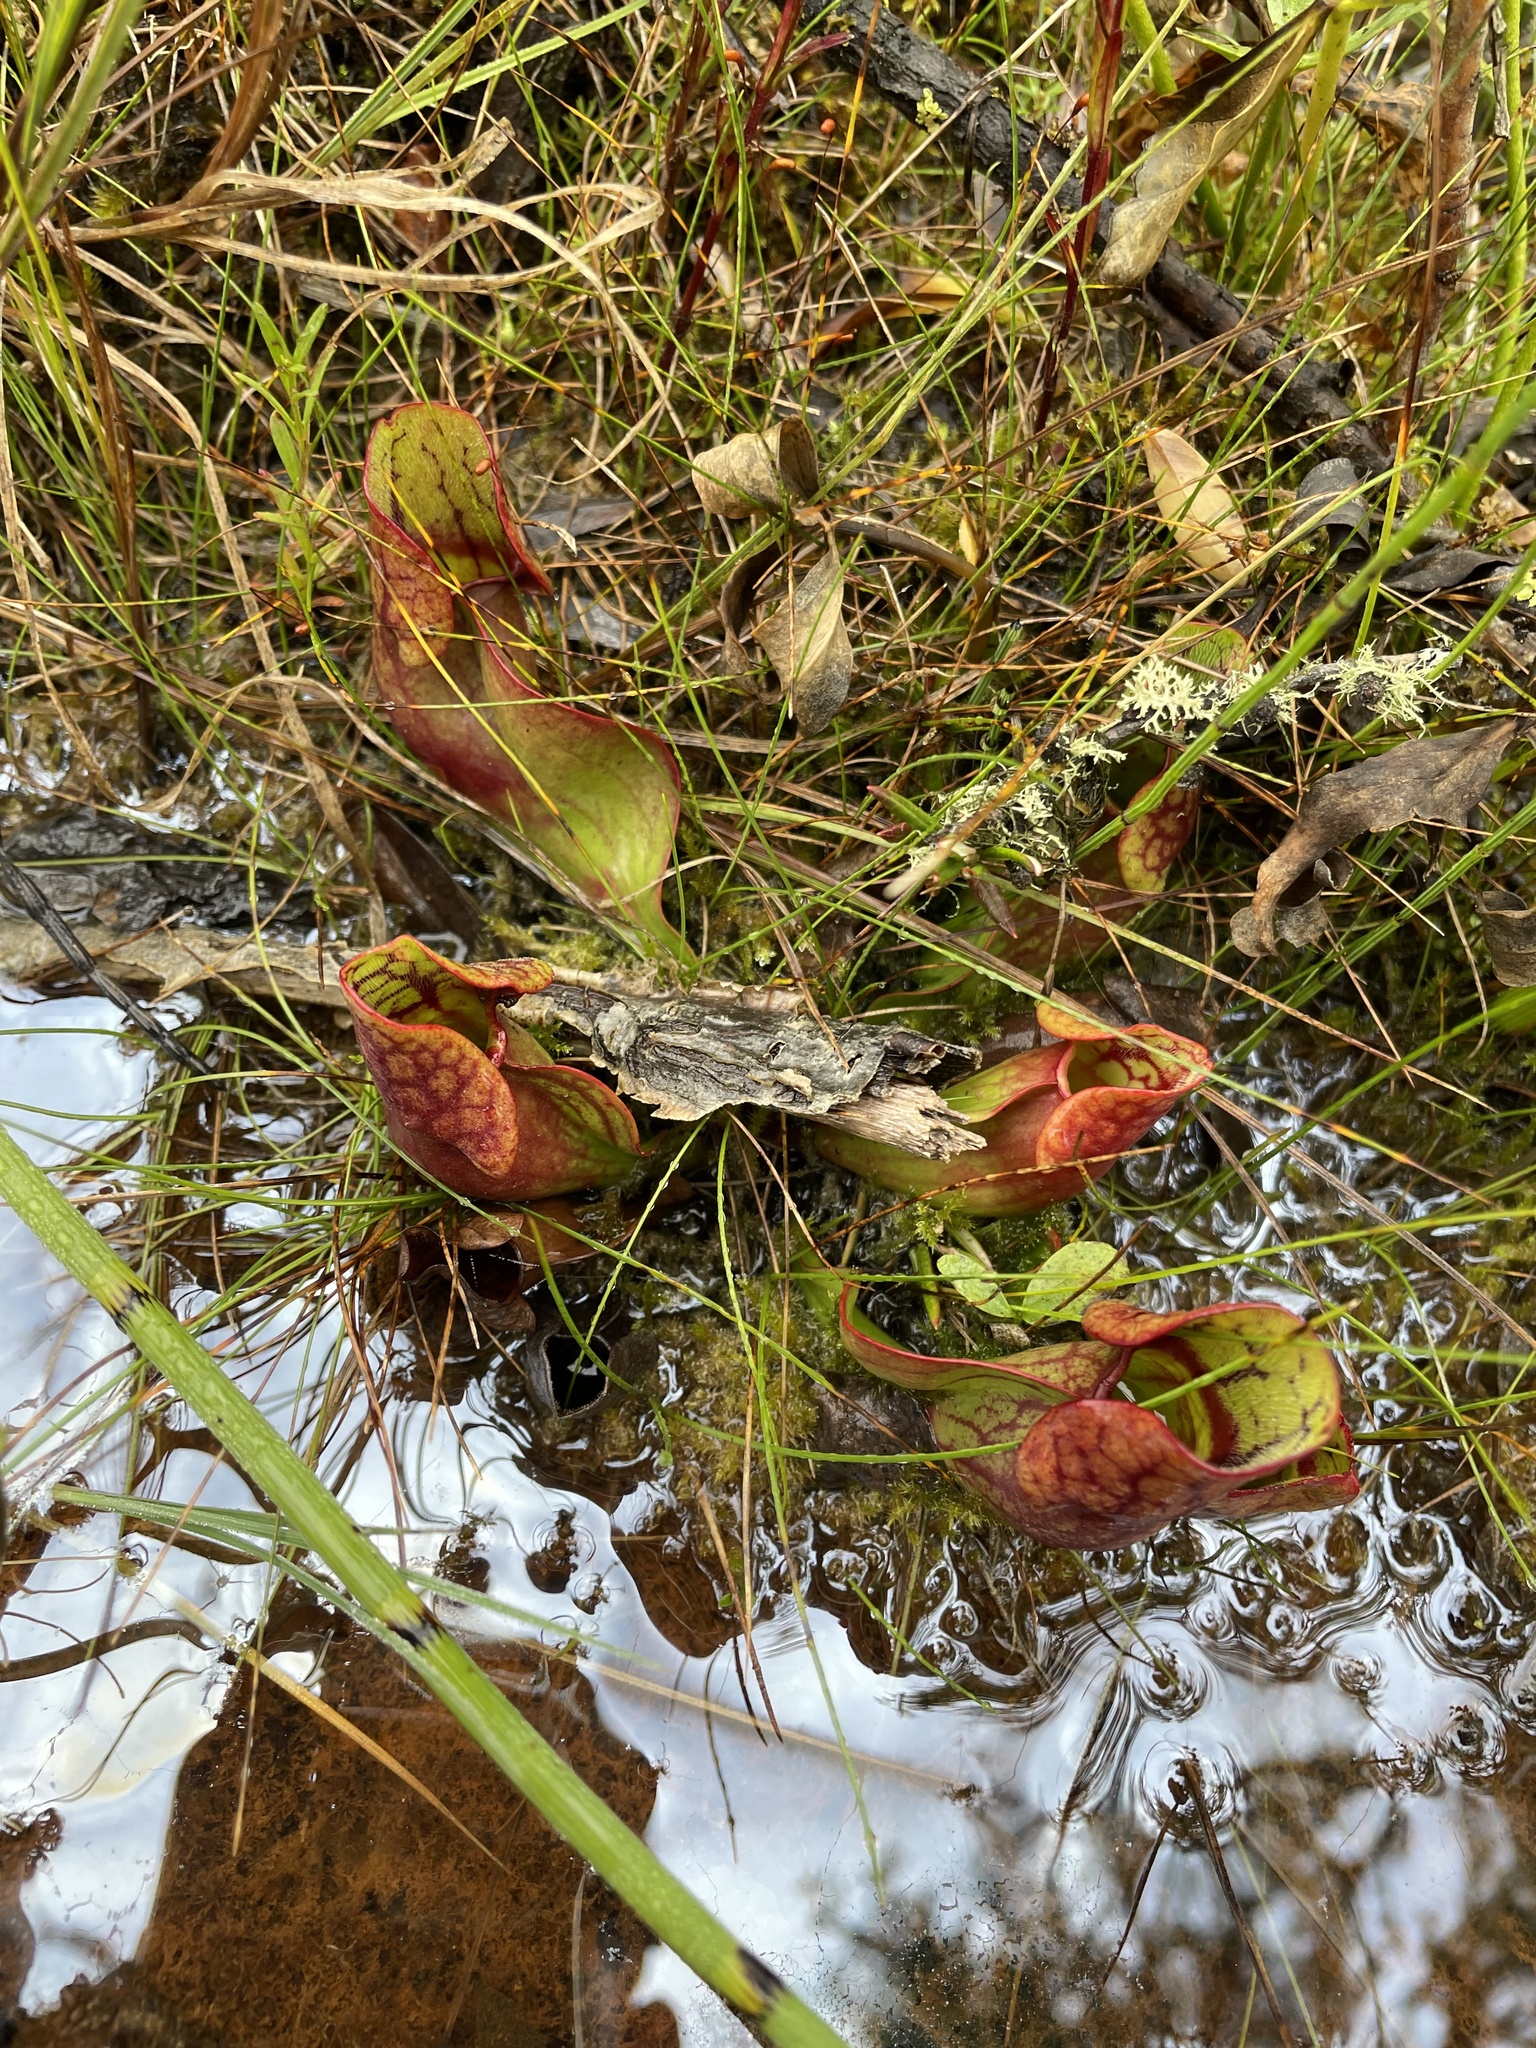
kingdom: Plantae
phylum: Tracheophyta
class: Magnoliopsida
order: Ericales
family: Sarraceniaceae
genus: Sarracenia
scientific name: Sarracenia purpurea
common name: Pitcherplant
